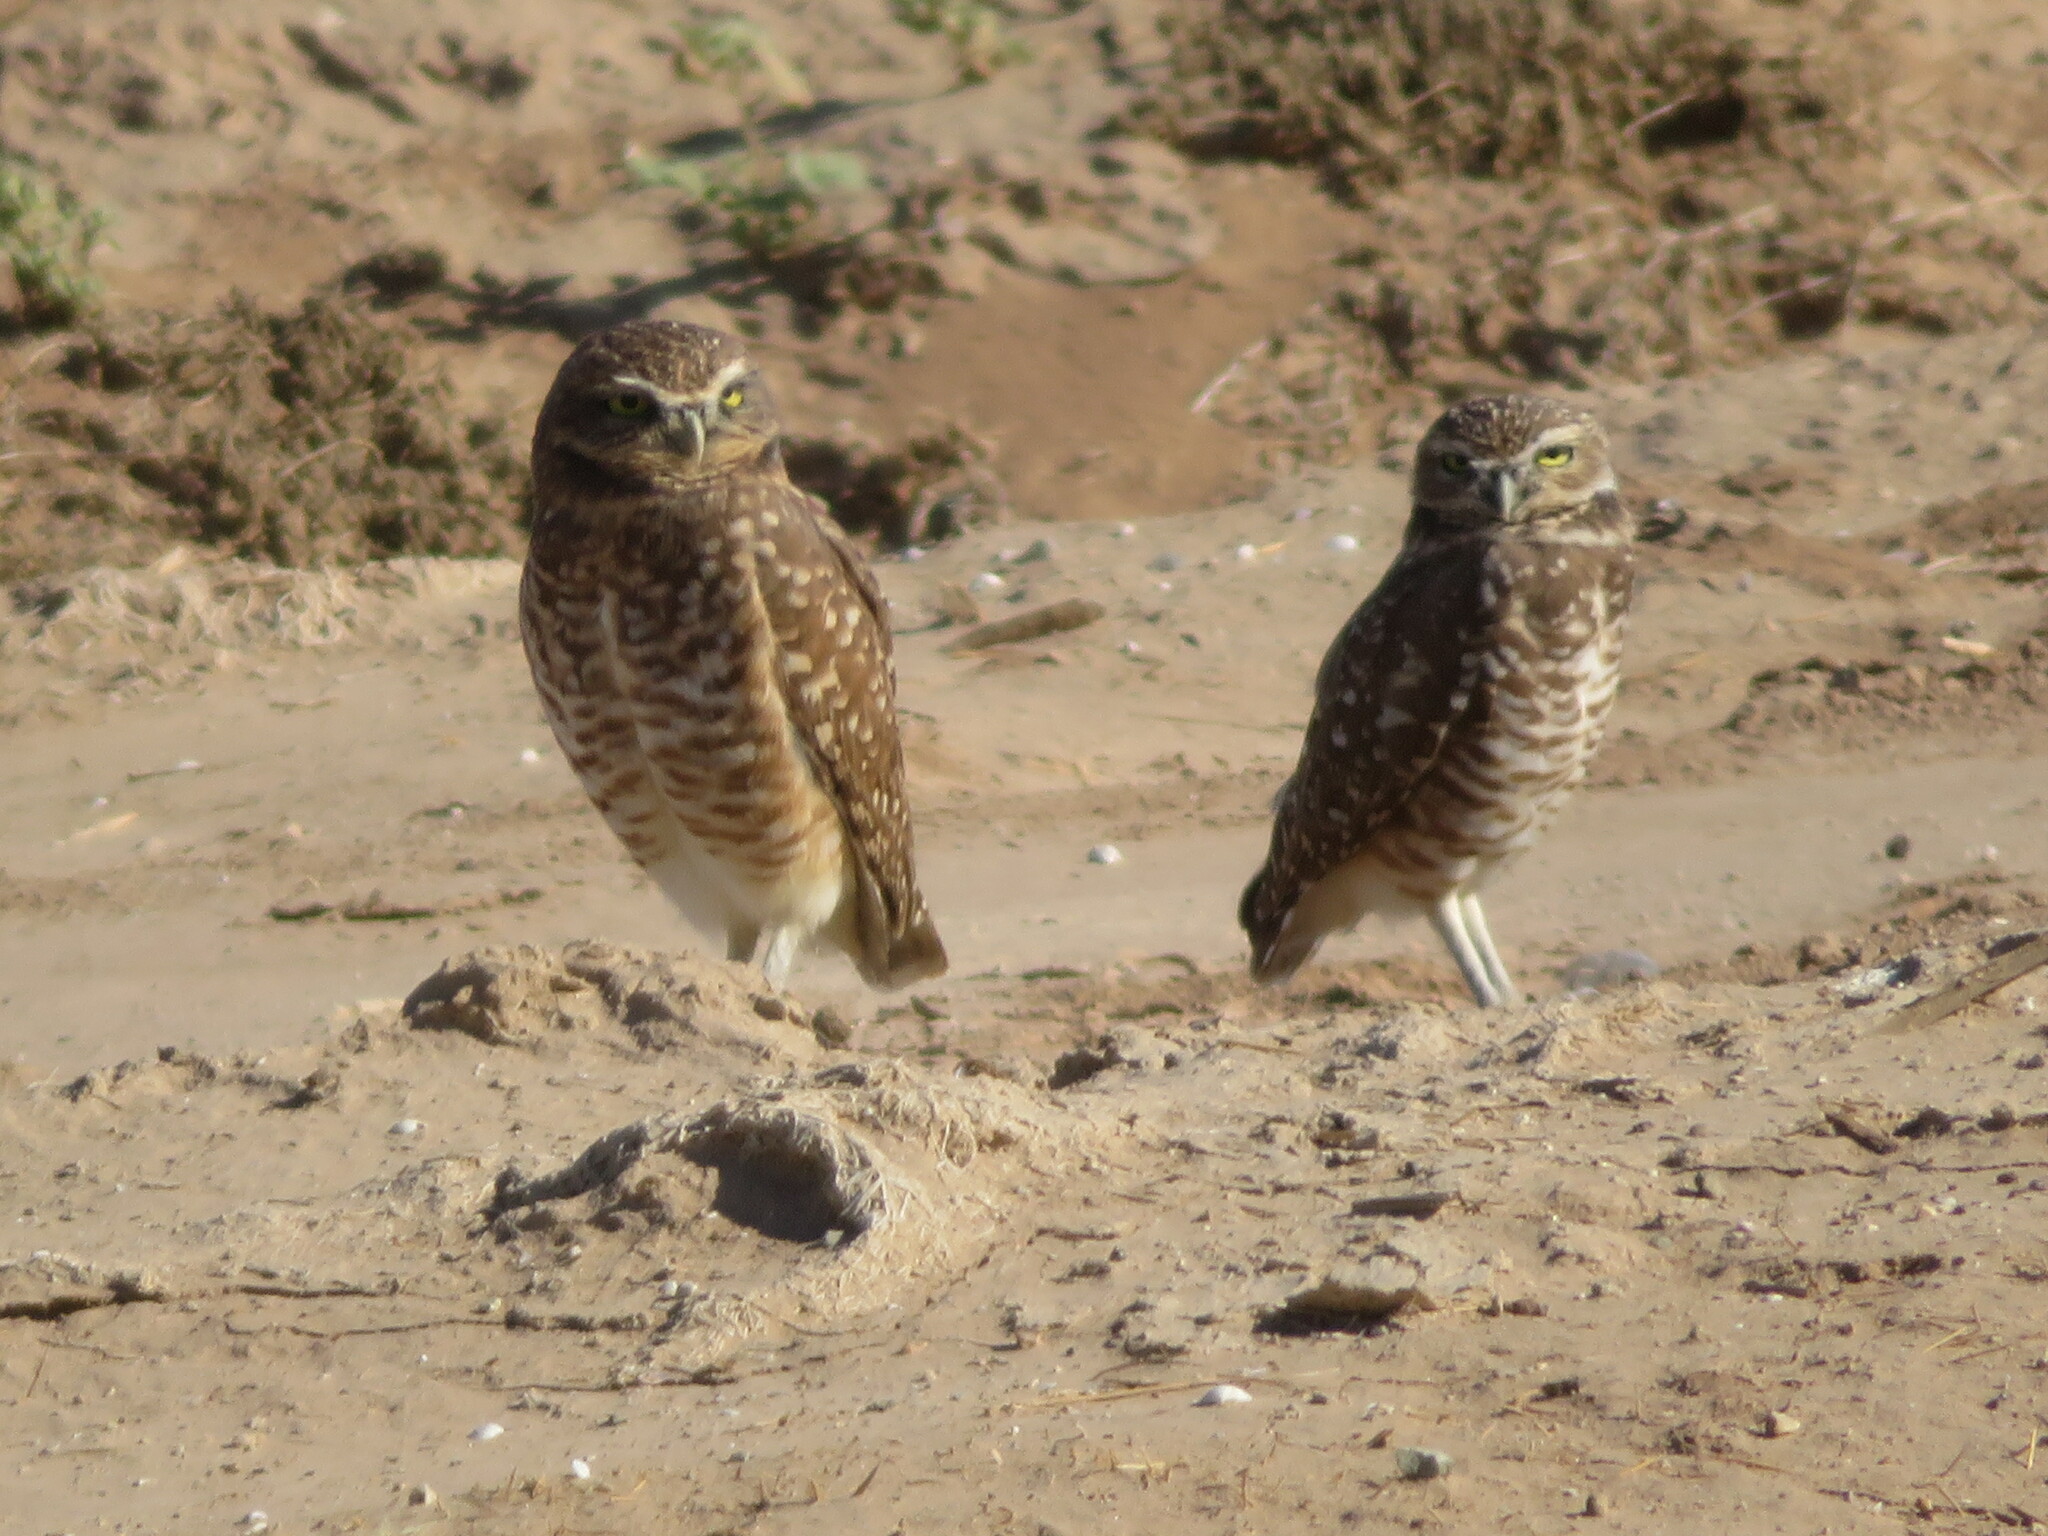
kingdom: Animalia
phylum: Chordata
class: Aves
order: Strigiformes
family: Strigidae
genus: Athene
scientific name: Athene cunicularia
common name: Burrowing owl
